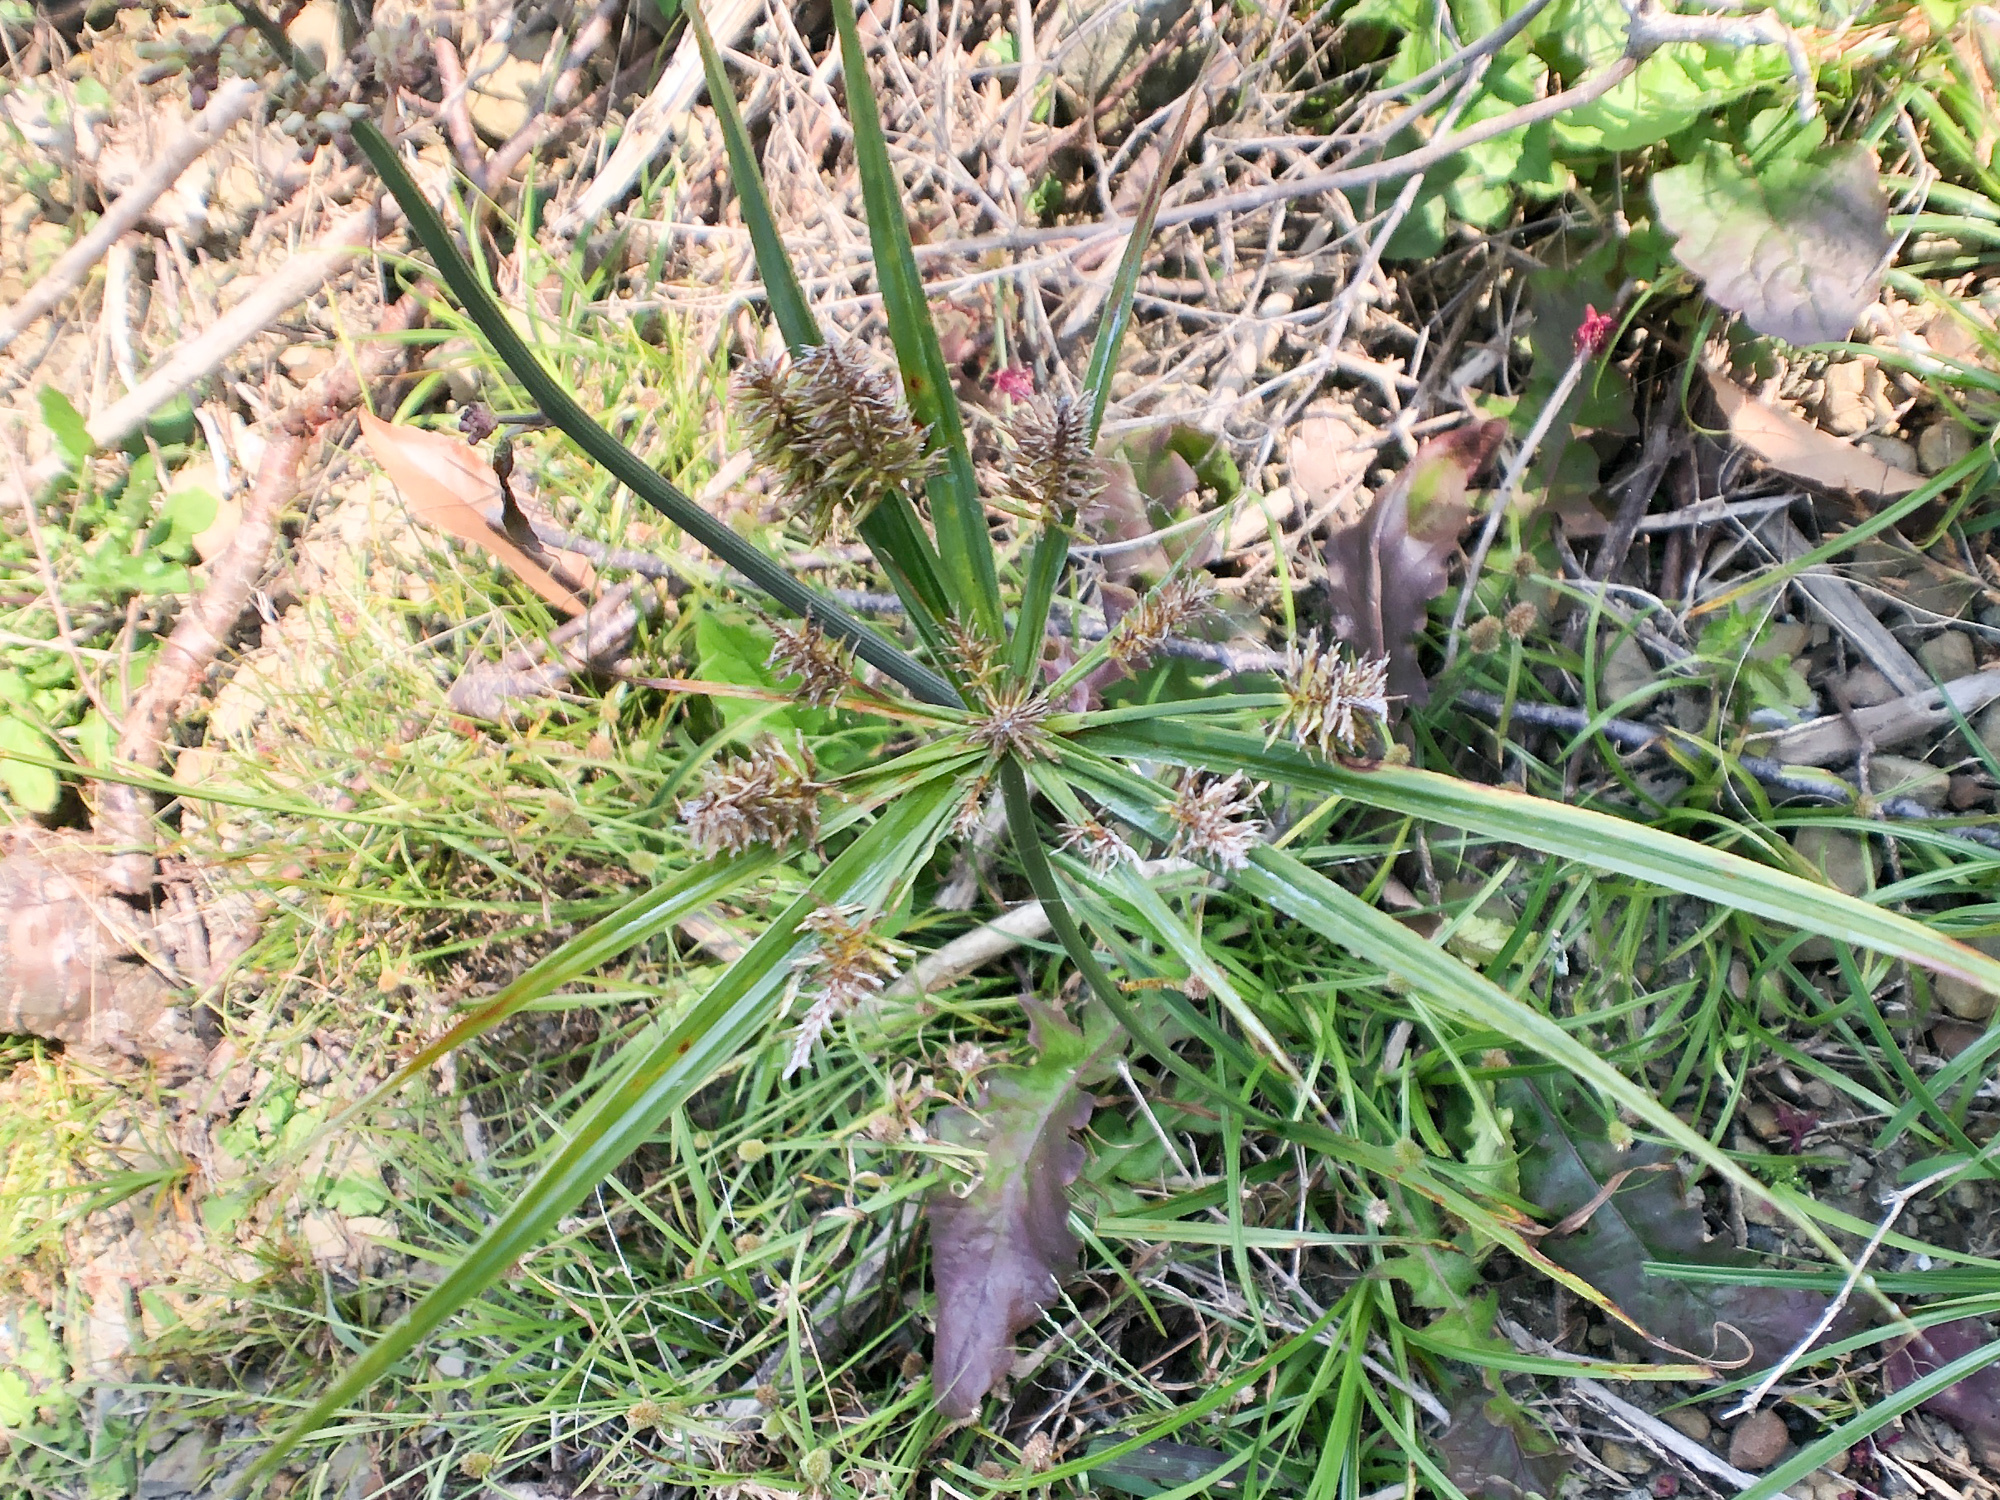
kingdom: Plantae
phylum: Tracheophyta
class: Liliopsida
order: Poales
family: Cyperaceae
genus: Cyperus
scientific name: Cyperus cyperoides
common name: Pacific island flat sedge
